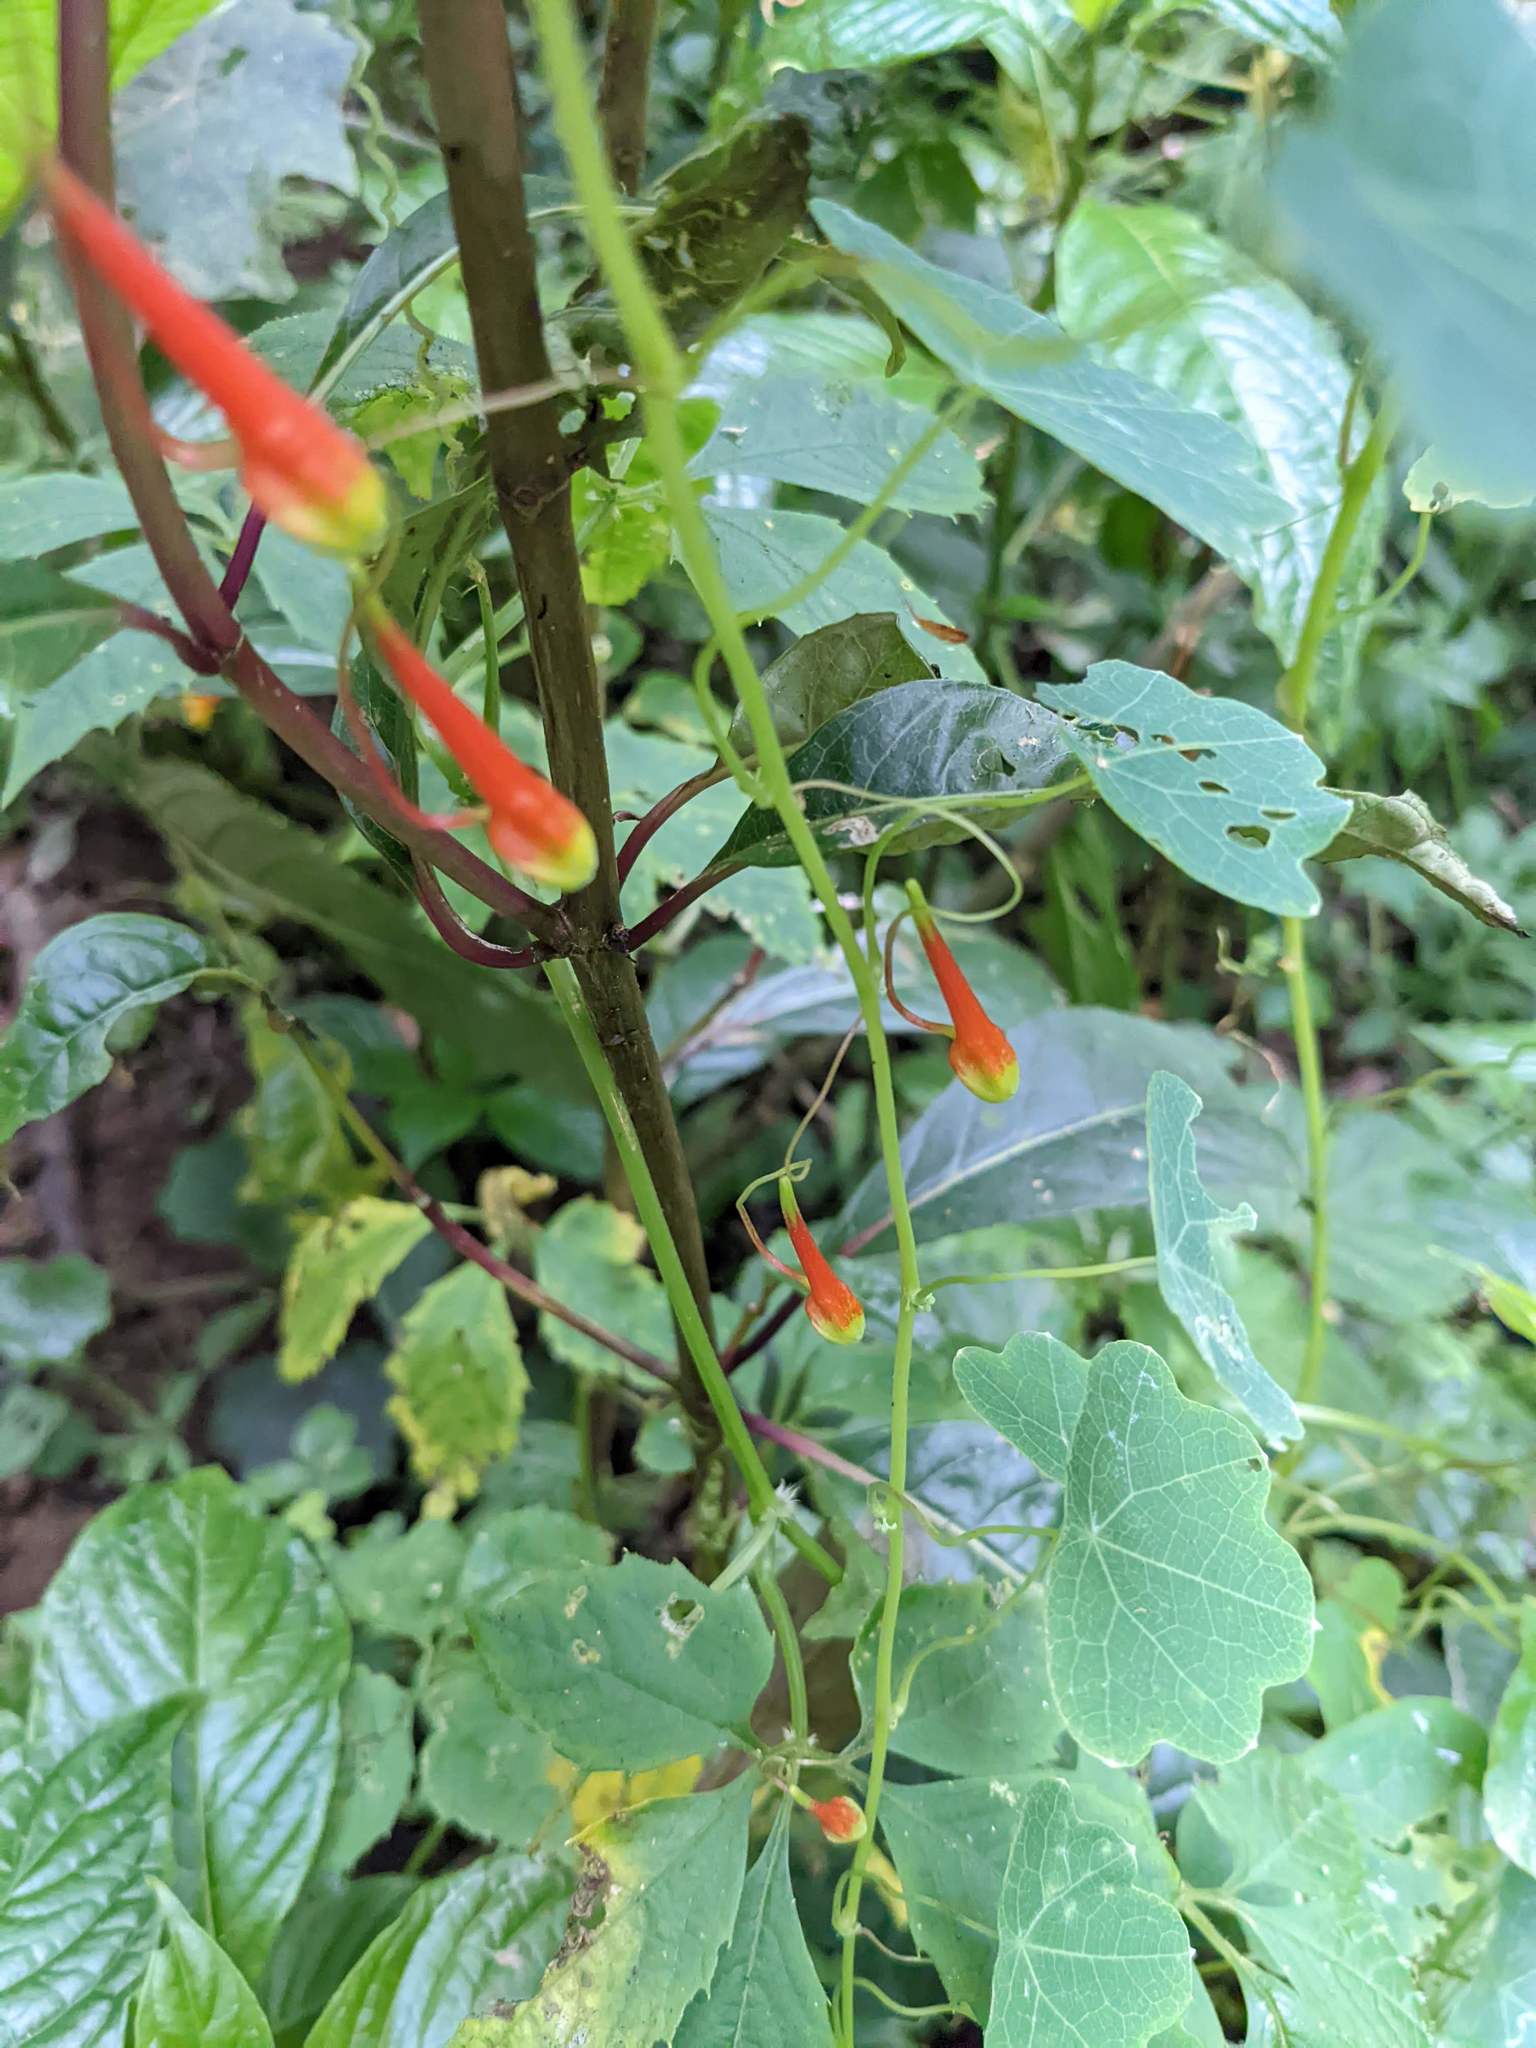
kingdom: Plantae
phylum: Tracheophyta
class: Magnoliopsida
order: Brassicales
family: Tropaeolaceae
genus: Tropaeolum
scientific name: Tropaeolum emarginatum
